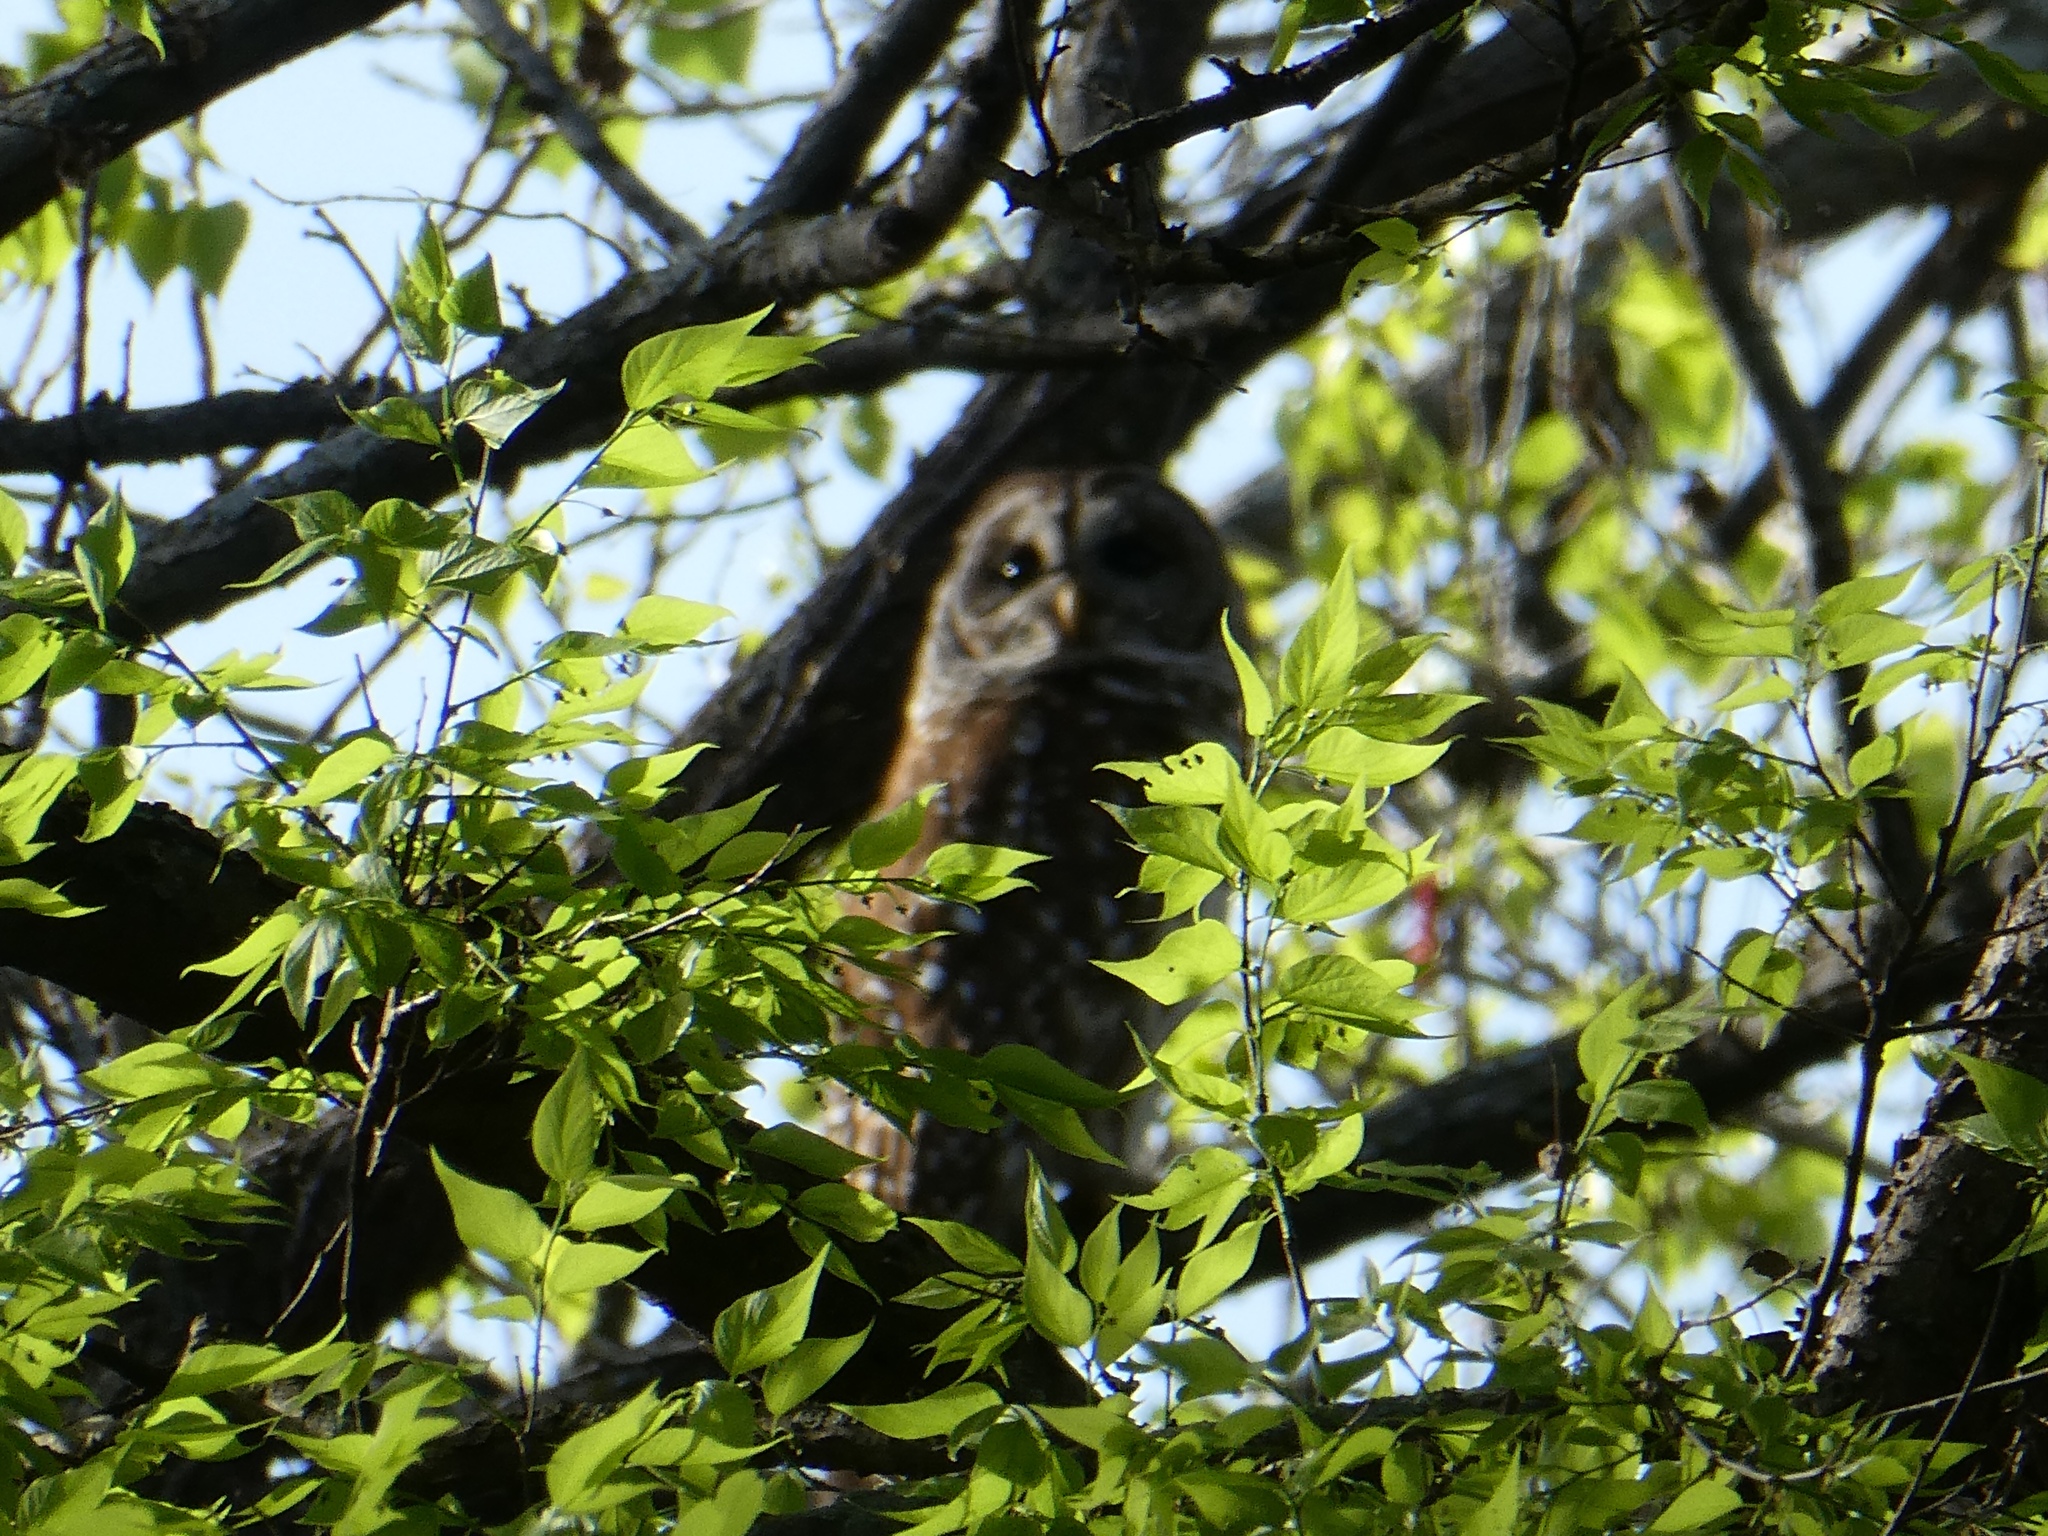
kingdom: Animalia
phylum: Chordata
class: Aves
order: Strigiformes
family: Strigidae
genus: Strix
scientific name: Strix varia
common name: Barred owl
